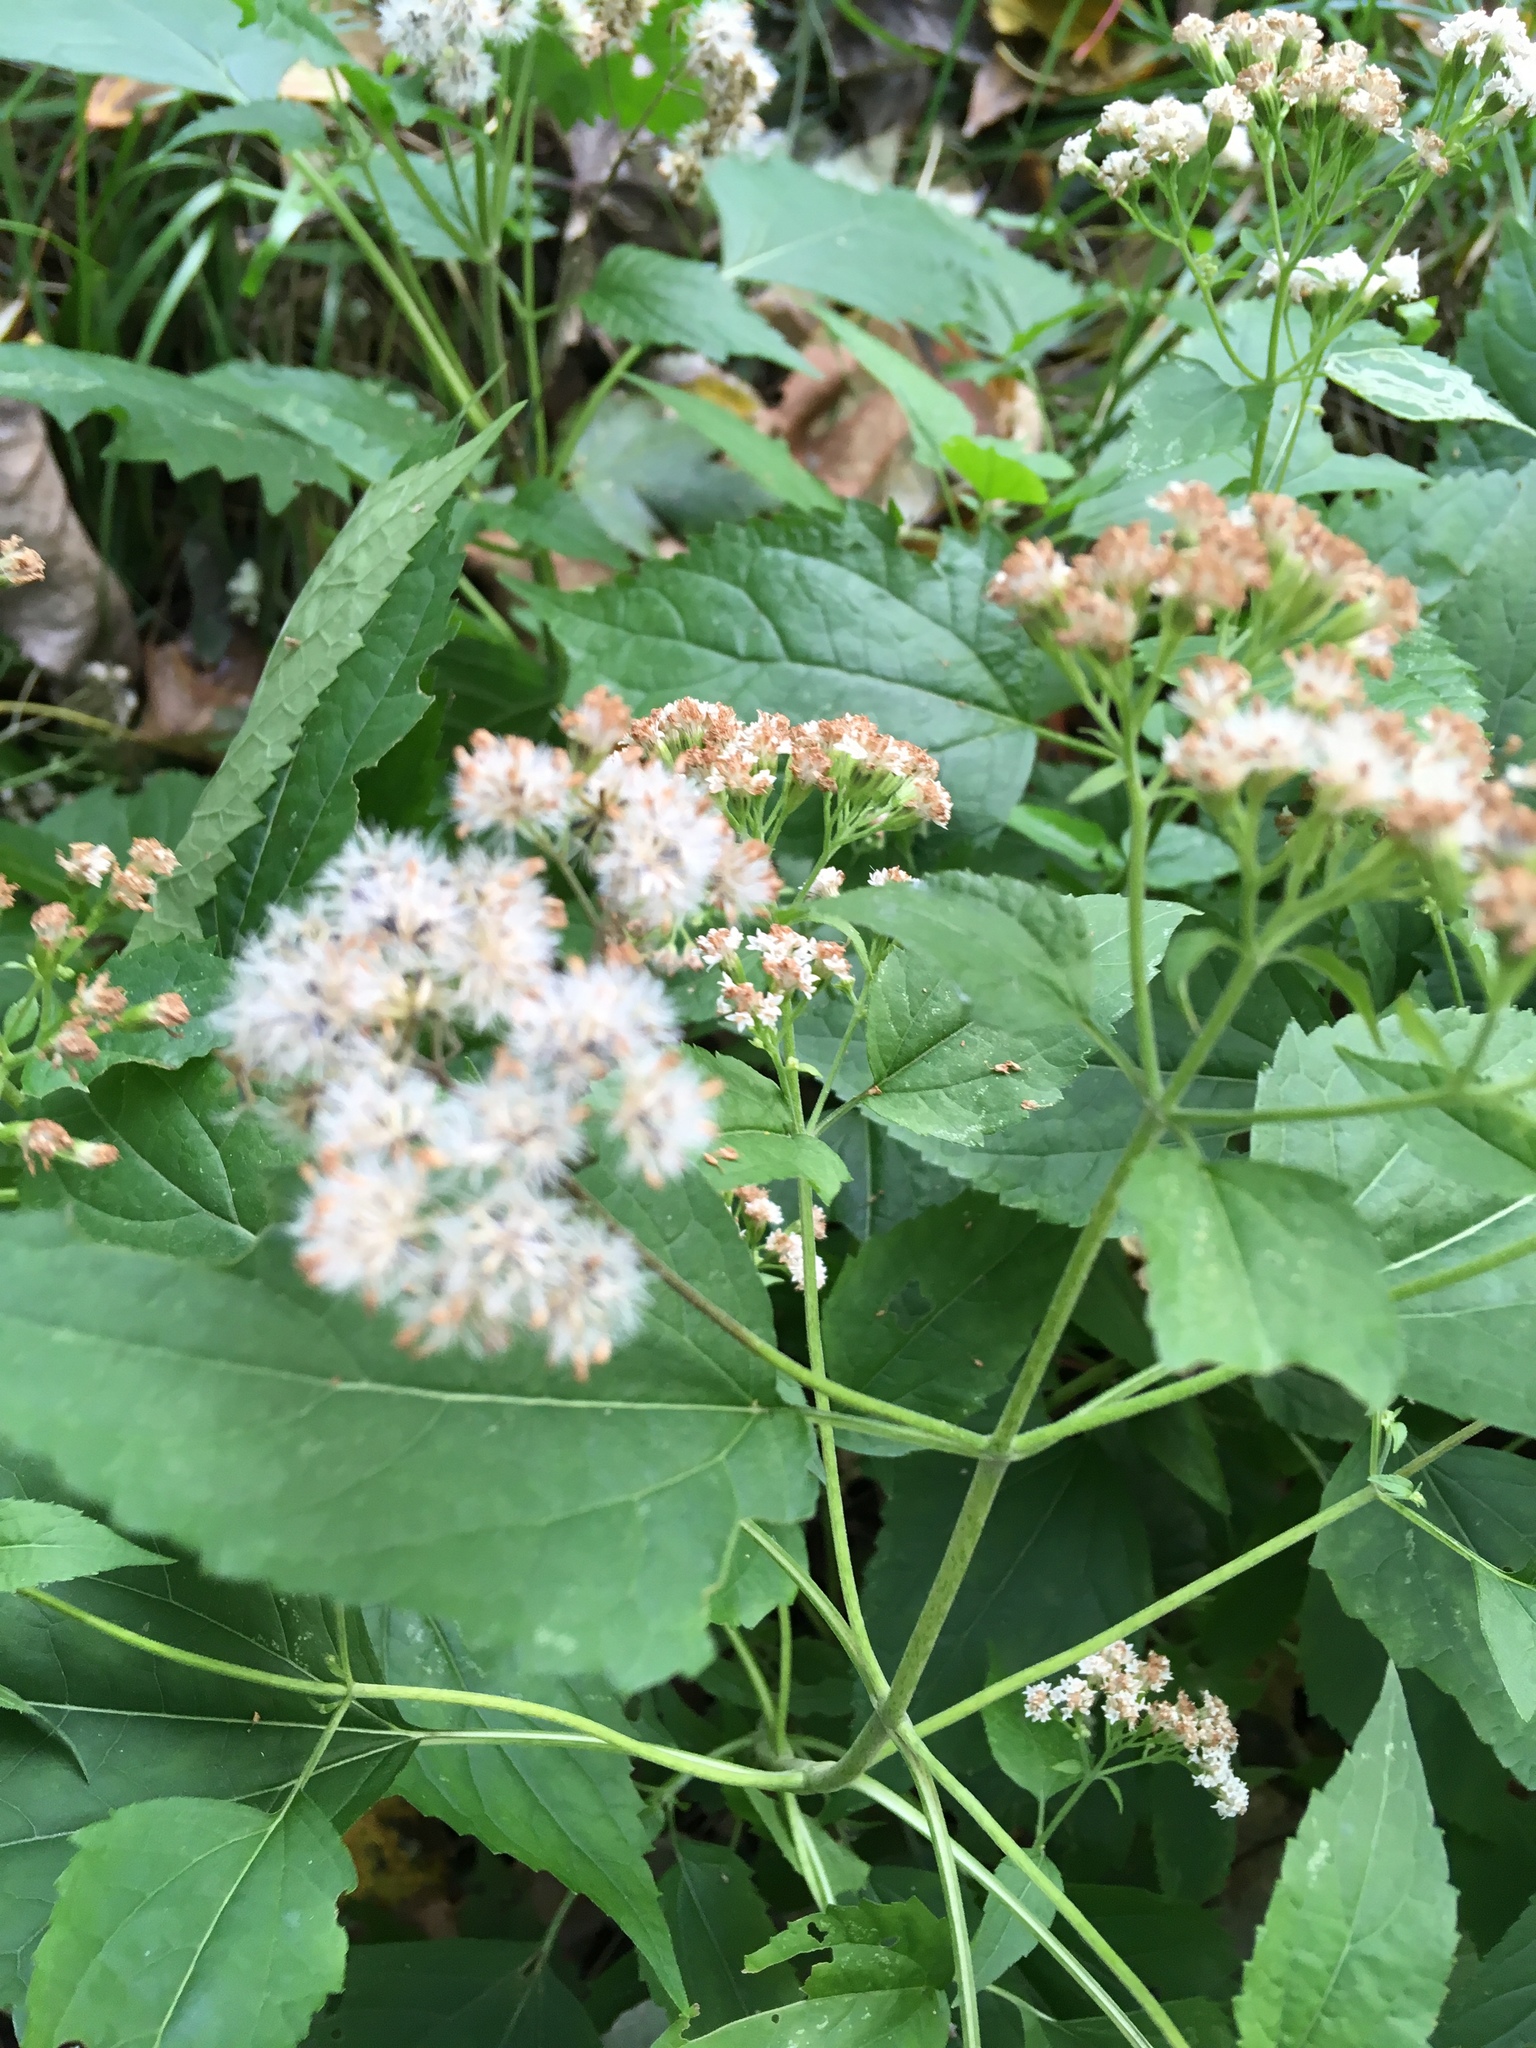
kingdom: Plantae
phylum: Tracheophyta
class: Magnoliopsida
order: Asterales
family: Asteraceae
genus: Ageratina
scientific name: Ageratina altissima
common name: White snakeroot
